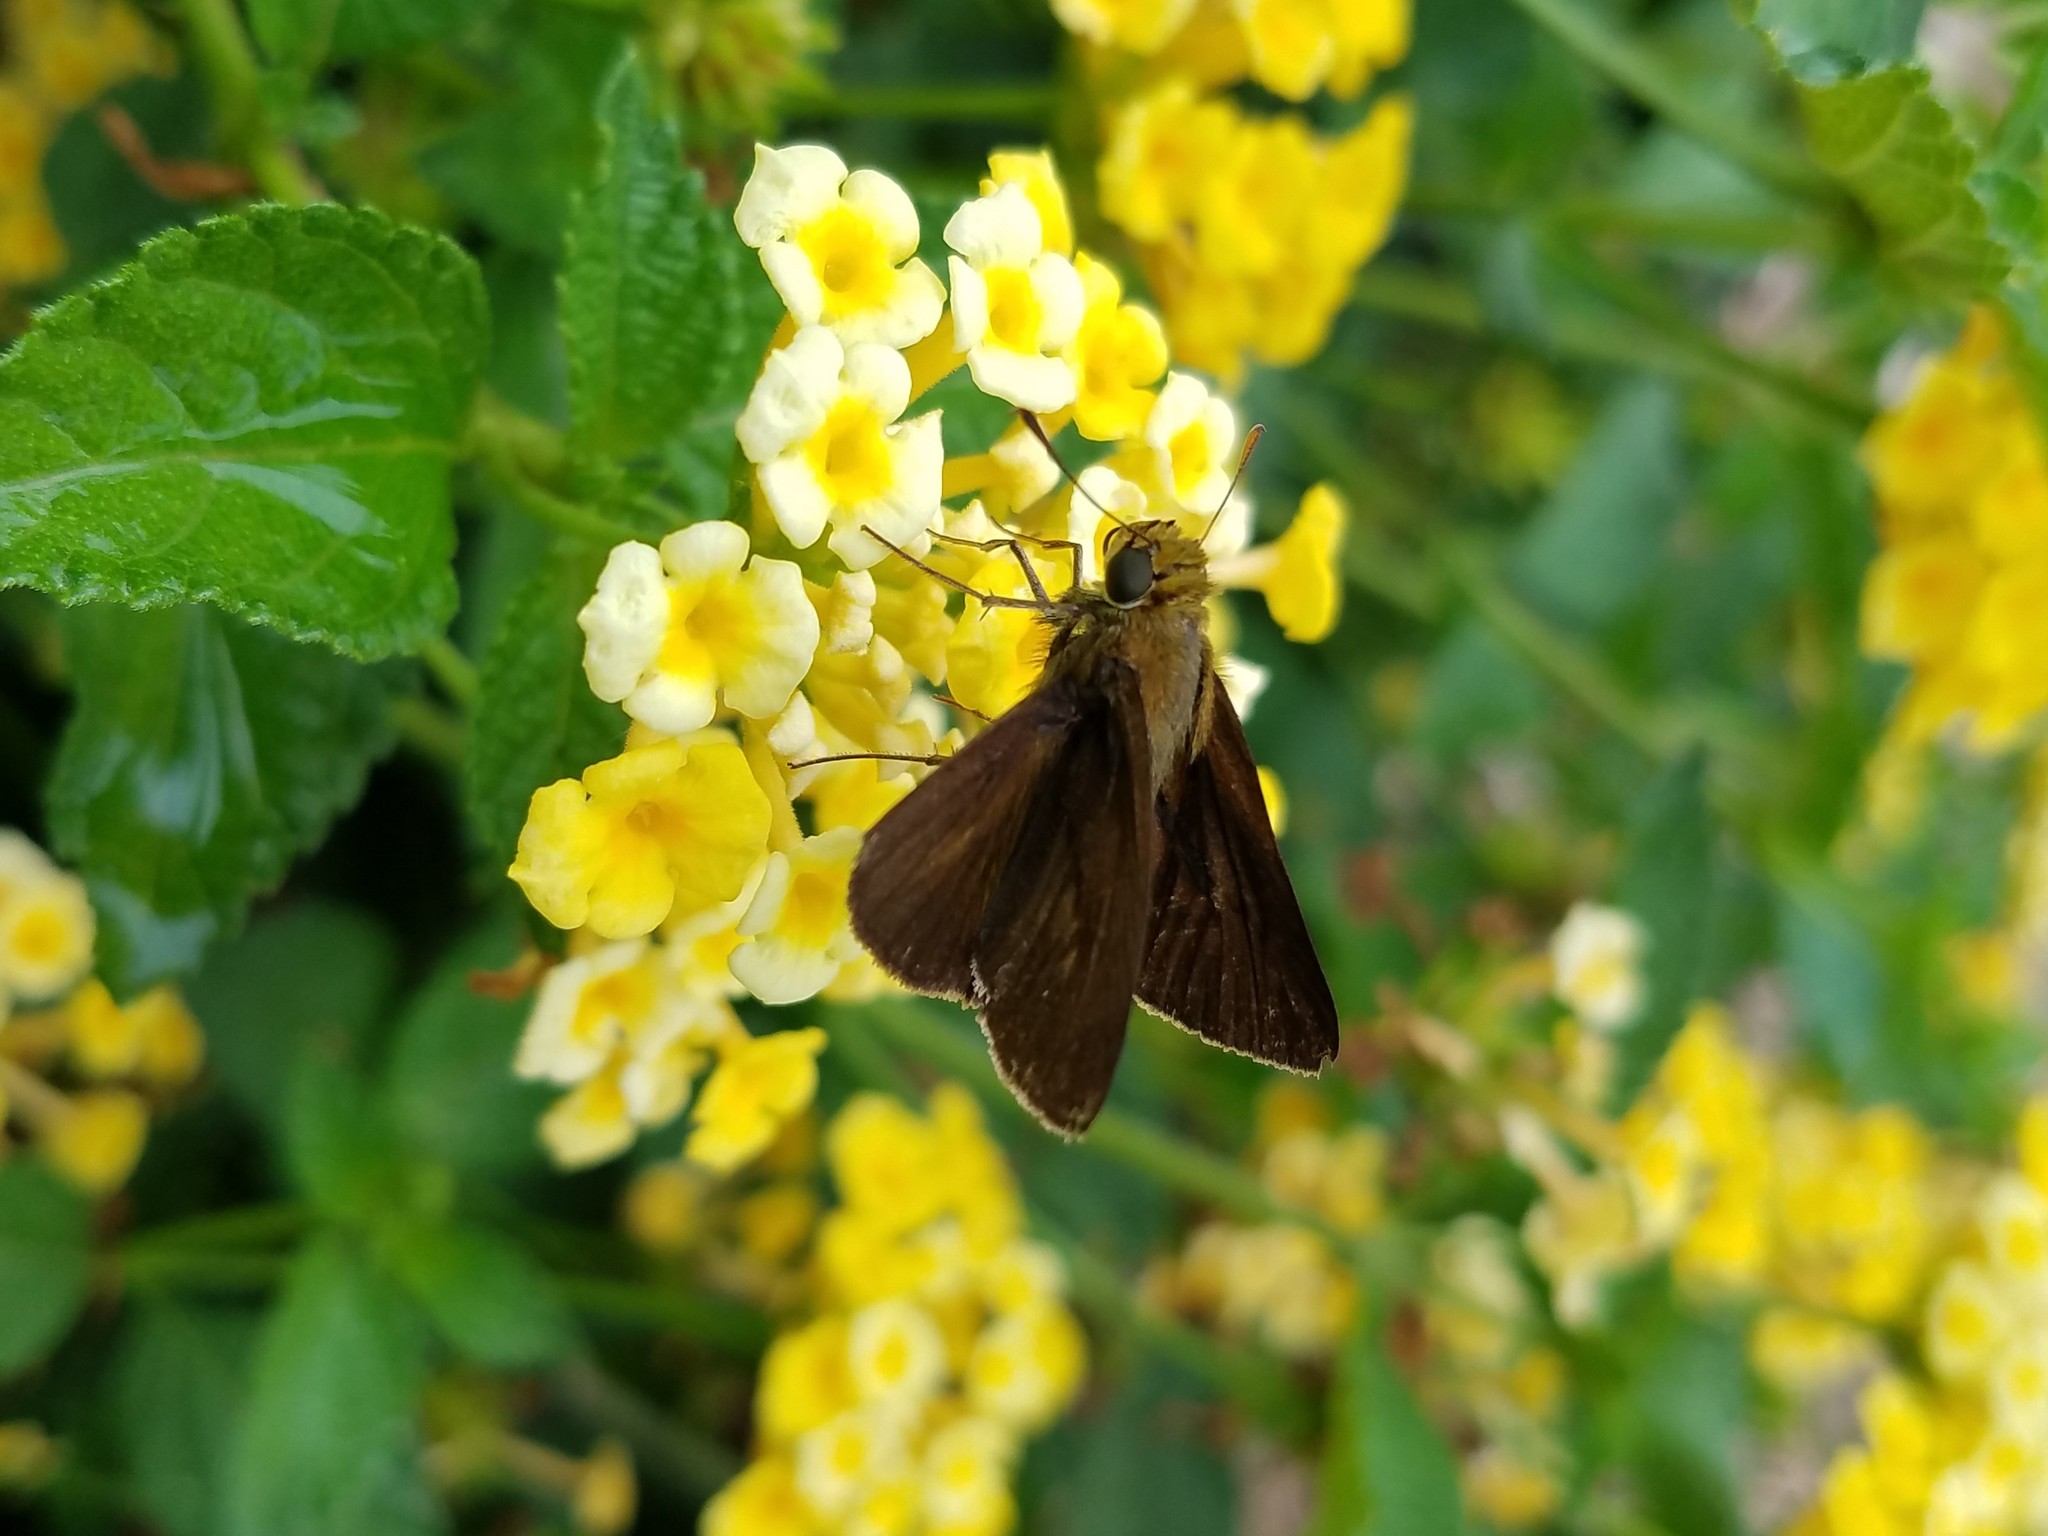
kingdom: Animalia
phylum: Arthropoda
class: Insecta
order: Lepidoptera
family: Hesperiidae
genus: Euphyes
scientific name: Euphyes vestris
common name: Dun skipper
